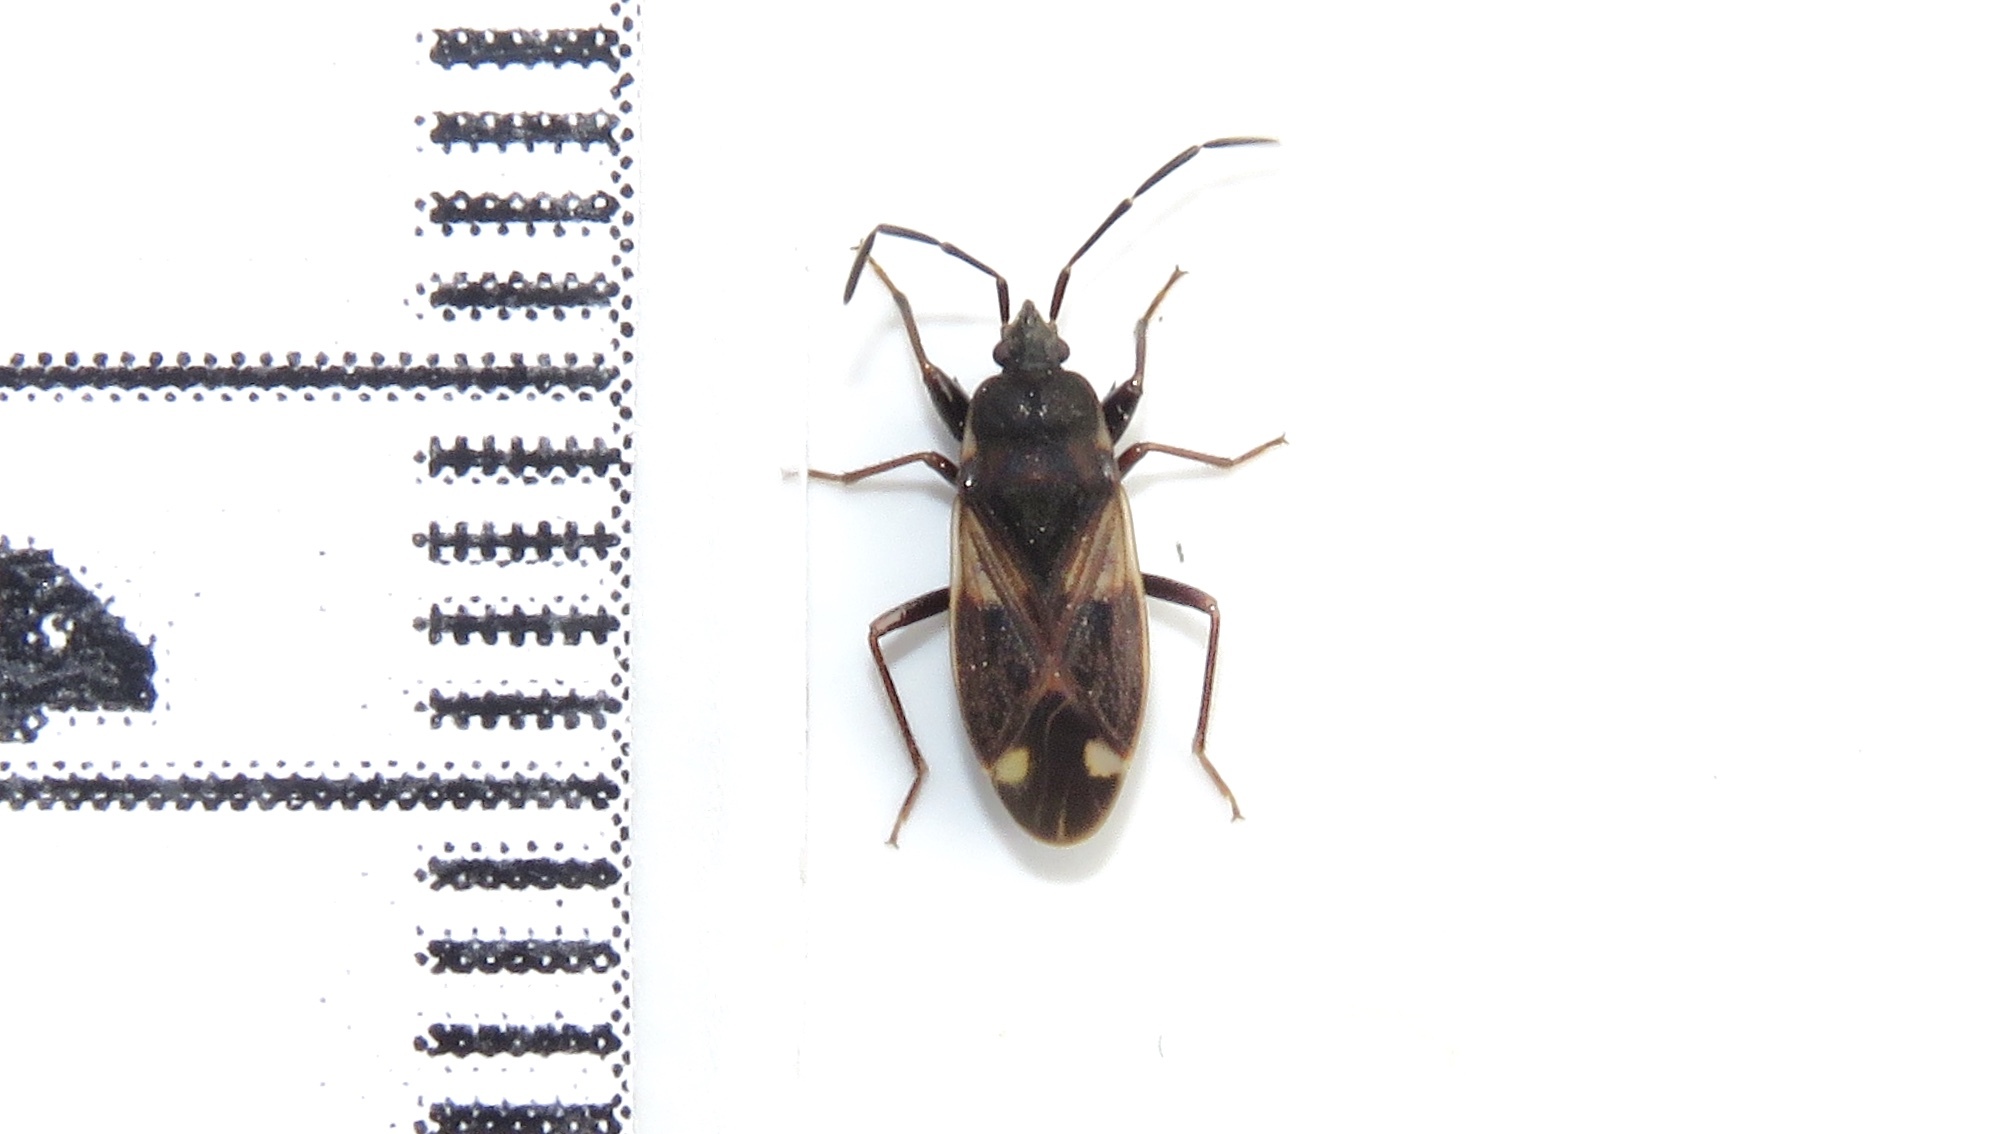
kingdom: Animalia
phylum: Arthropoda
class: Insecta
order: Hemiptera
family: Rhyparochromidae
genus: Eremocoris
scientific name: Eremocoris borealis
